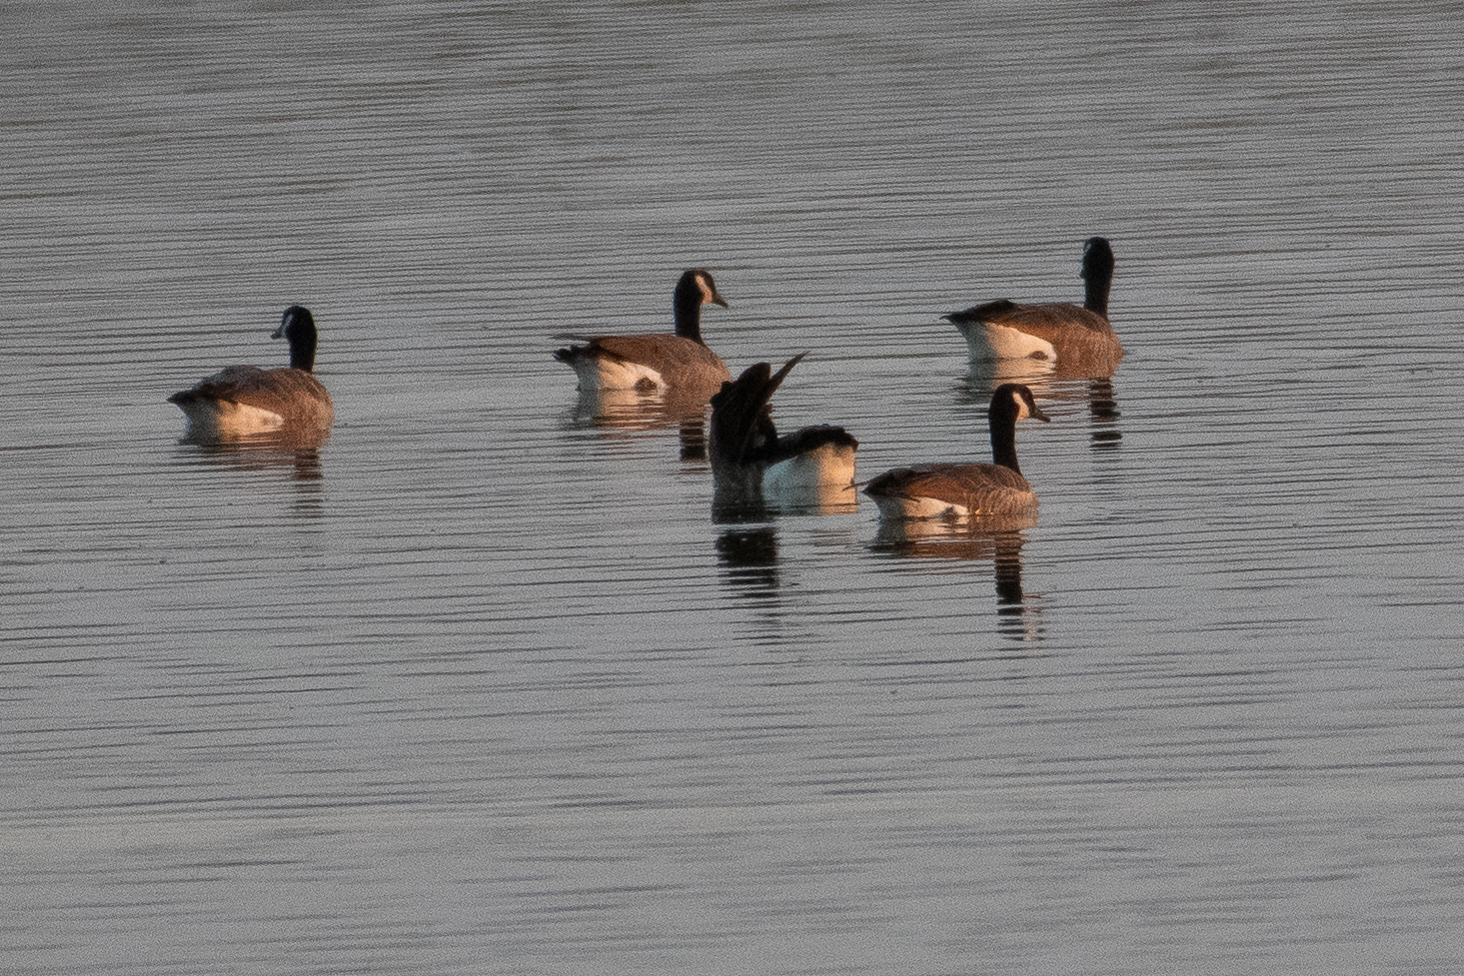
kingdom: Animalia
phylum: Chordata
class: Aves
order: Anseriformes
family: Anatidae
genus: Branta
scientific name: Branta canadensis
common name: Canada goose
